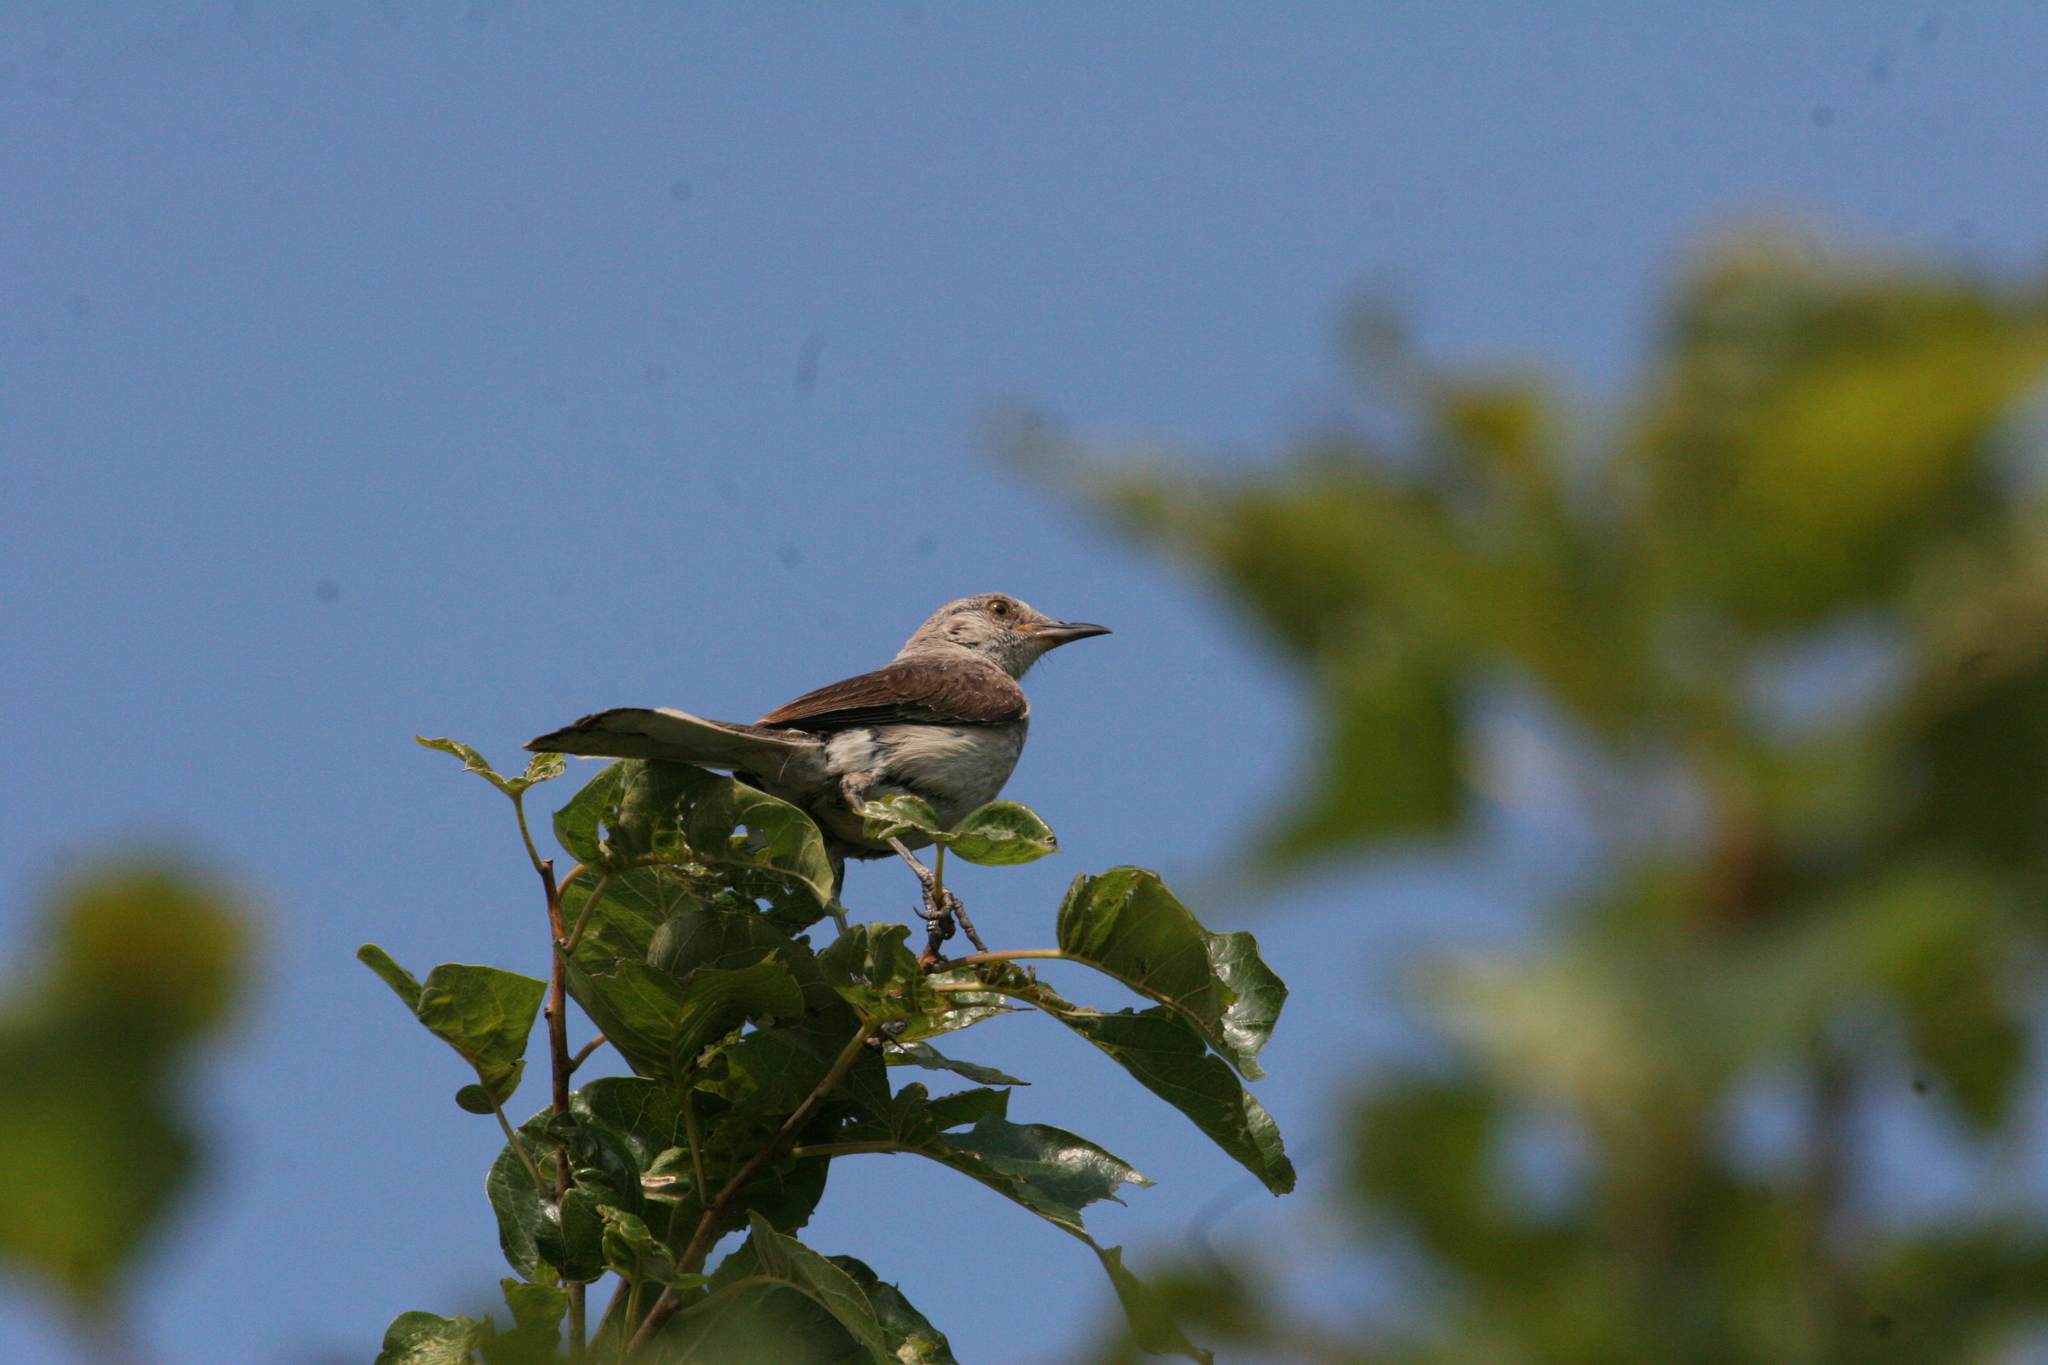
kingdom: Animalia
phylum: Chordata
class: Aves
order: Passeriformes
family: Mimidae
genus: Mimus
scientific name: Mimus polyglottos
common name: Northern mockingbird
